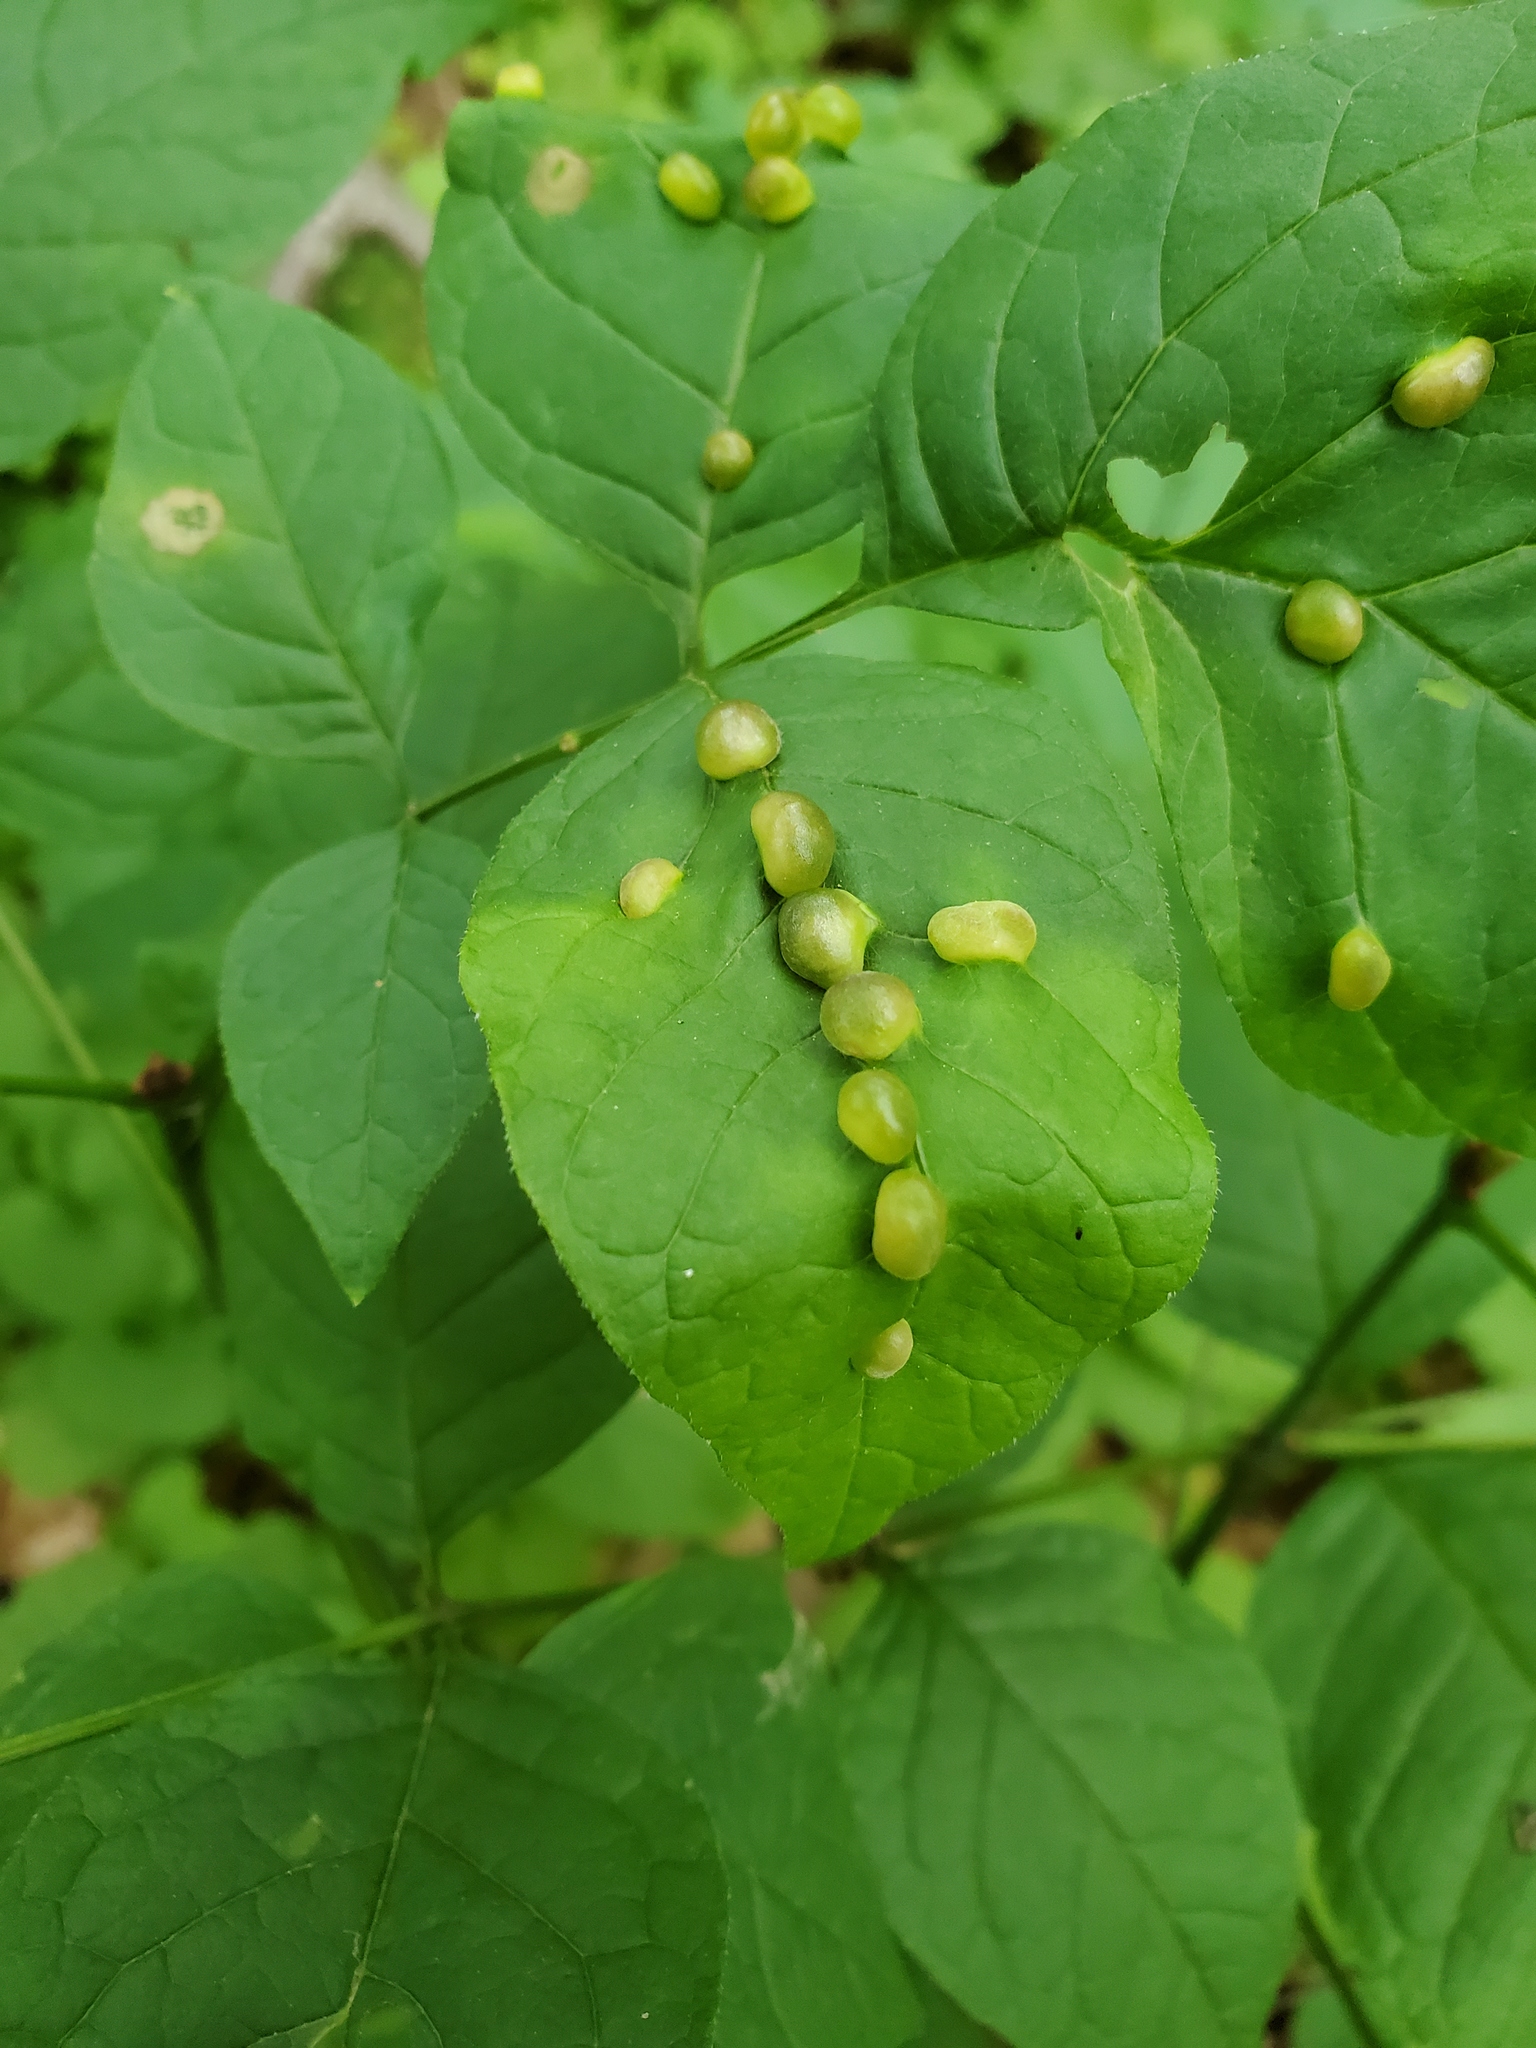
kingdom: Animalia
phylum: Arthropoda
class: Insecta
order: Diptera
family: Cecidomyiidae
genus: Dasineura
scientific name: Dasineura pellex
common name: Ash bullet gall midge
